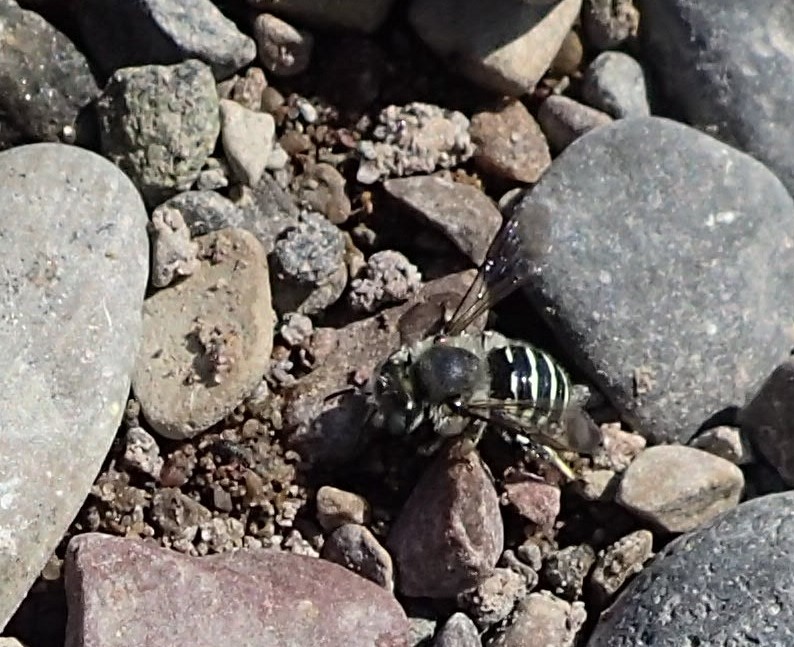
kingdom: Animalia
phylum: Arthropoda
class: Insecta
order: Hymenoptera
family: Apidae
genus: Bombus
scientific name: Bombus rufocinctus
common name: Red-belted bumble bee
